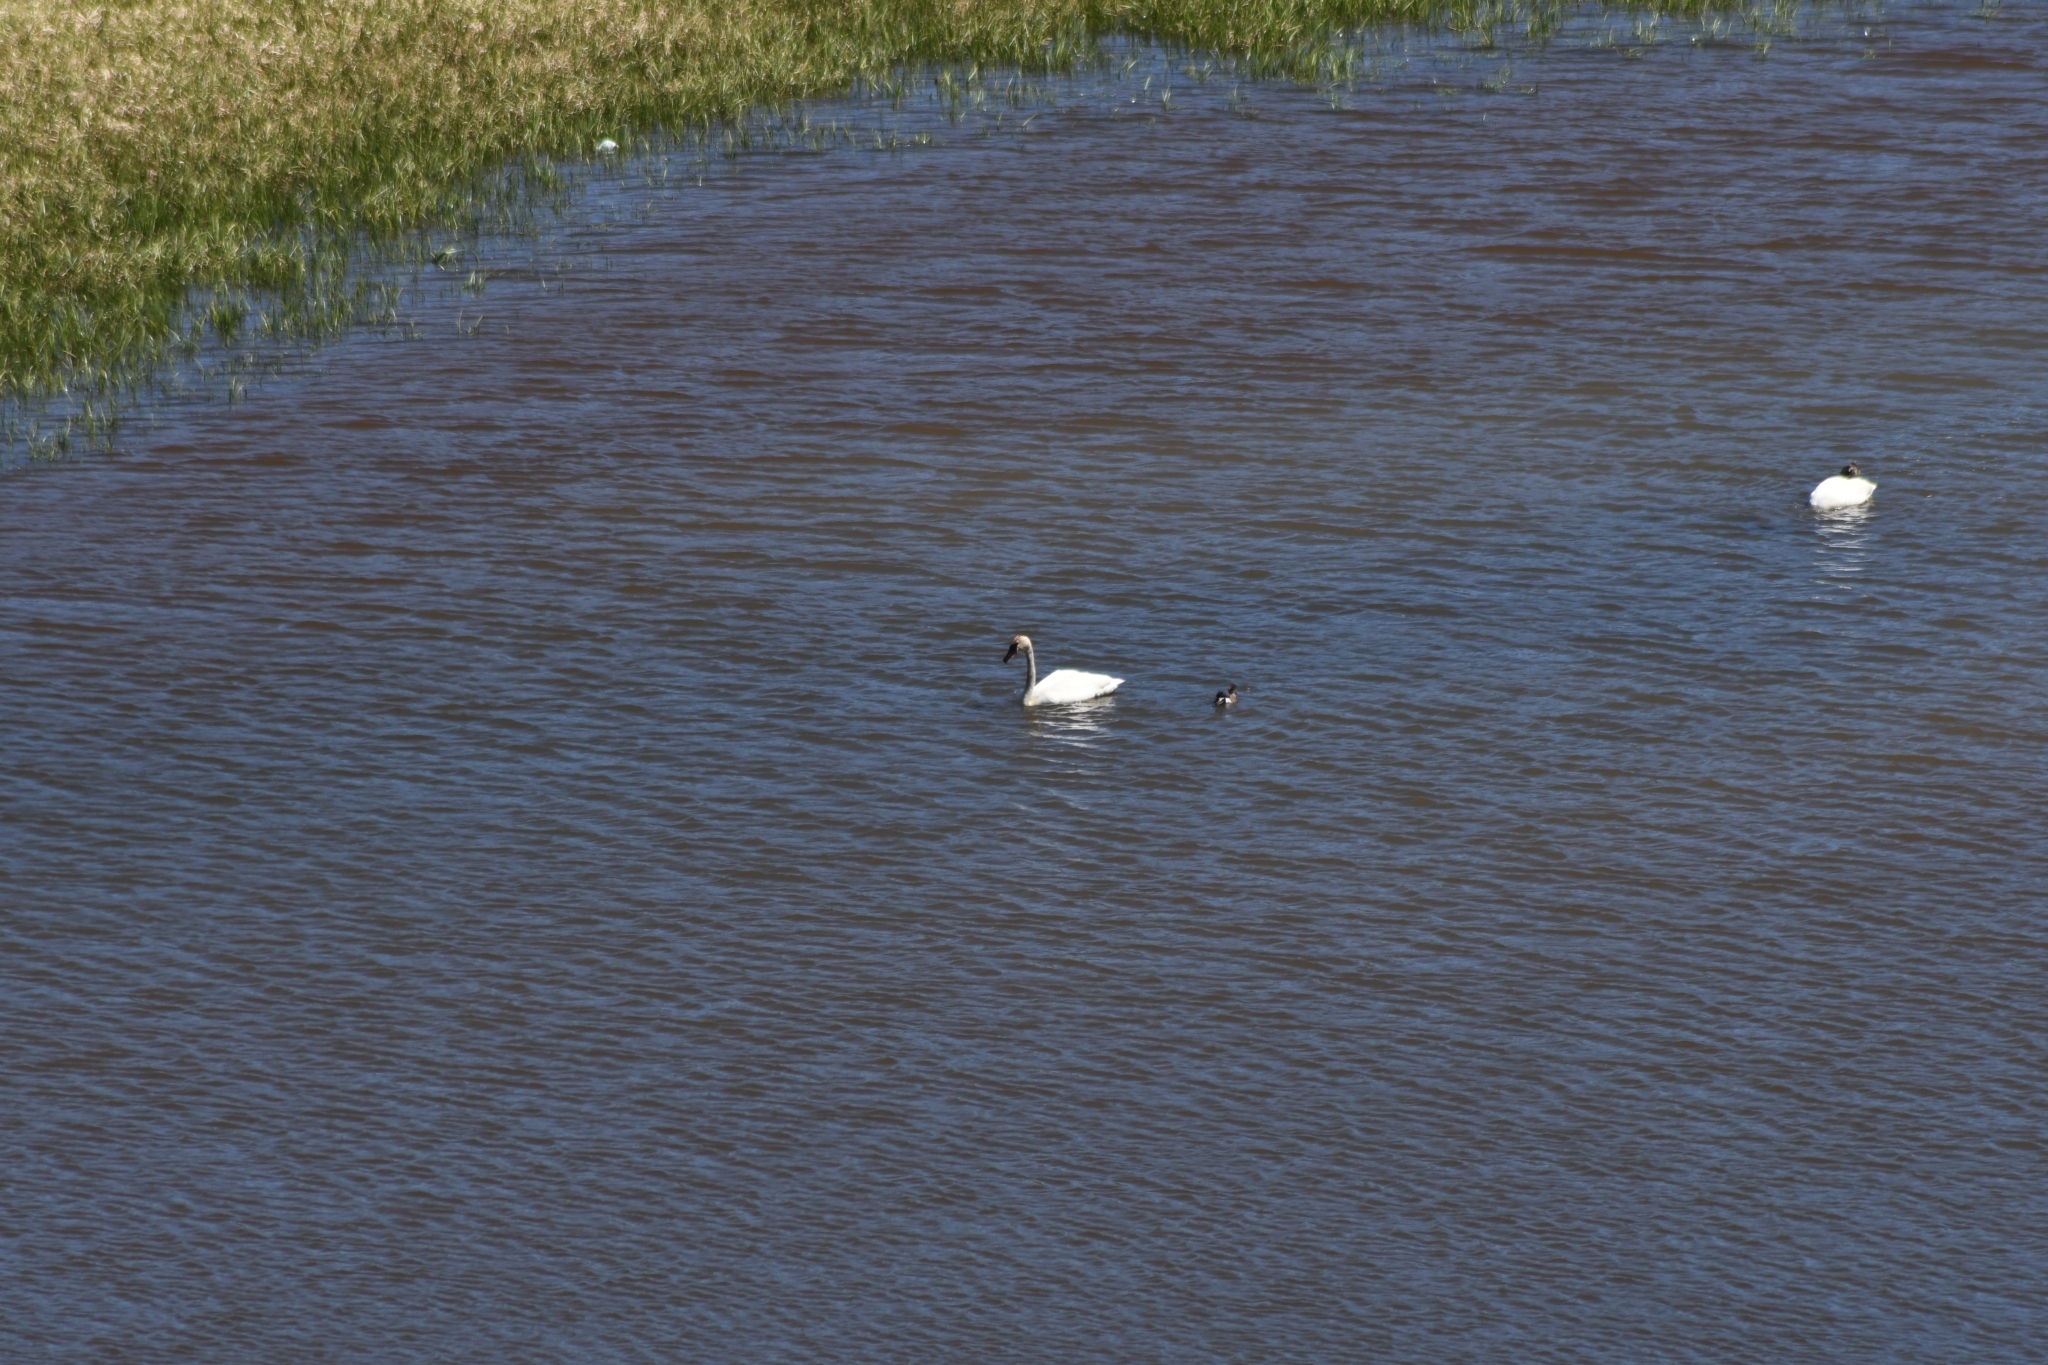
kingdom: Animalia
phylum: Chordata
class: Aves
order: Anseriformes
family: Anatidae
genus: Cygnus
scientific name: Cygnus buccinator
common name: Trumpeter swan
